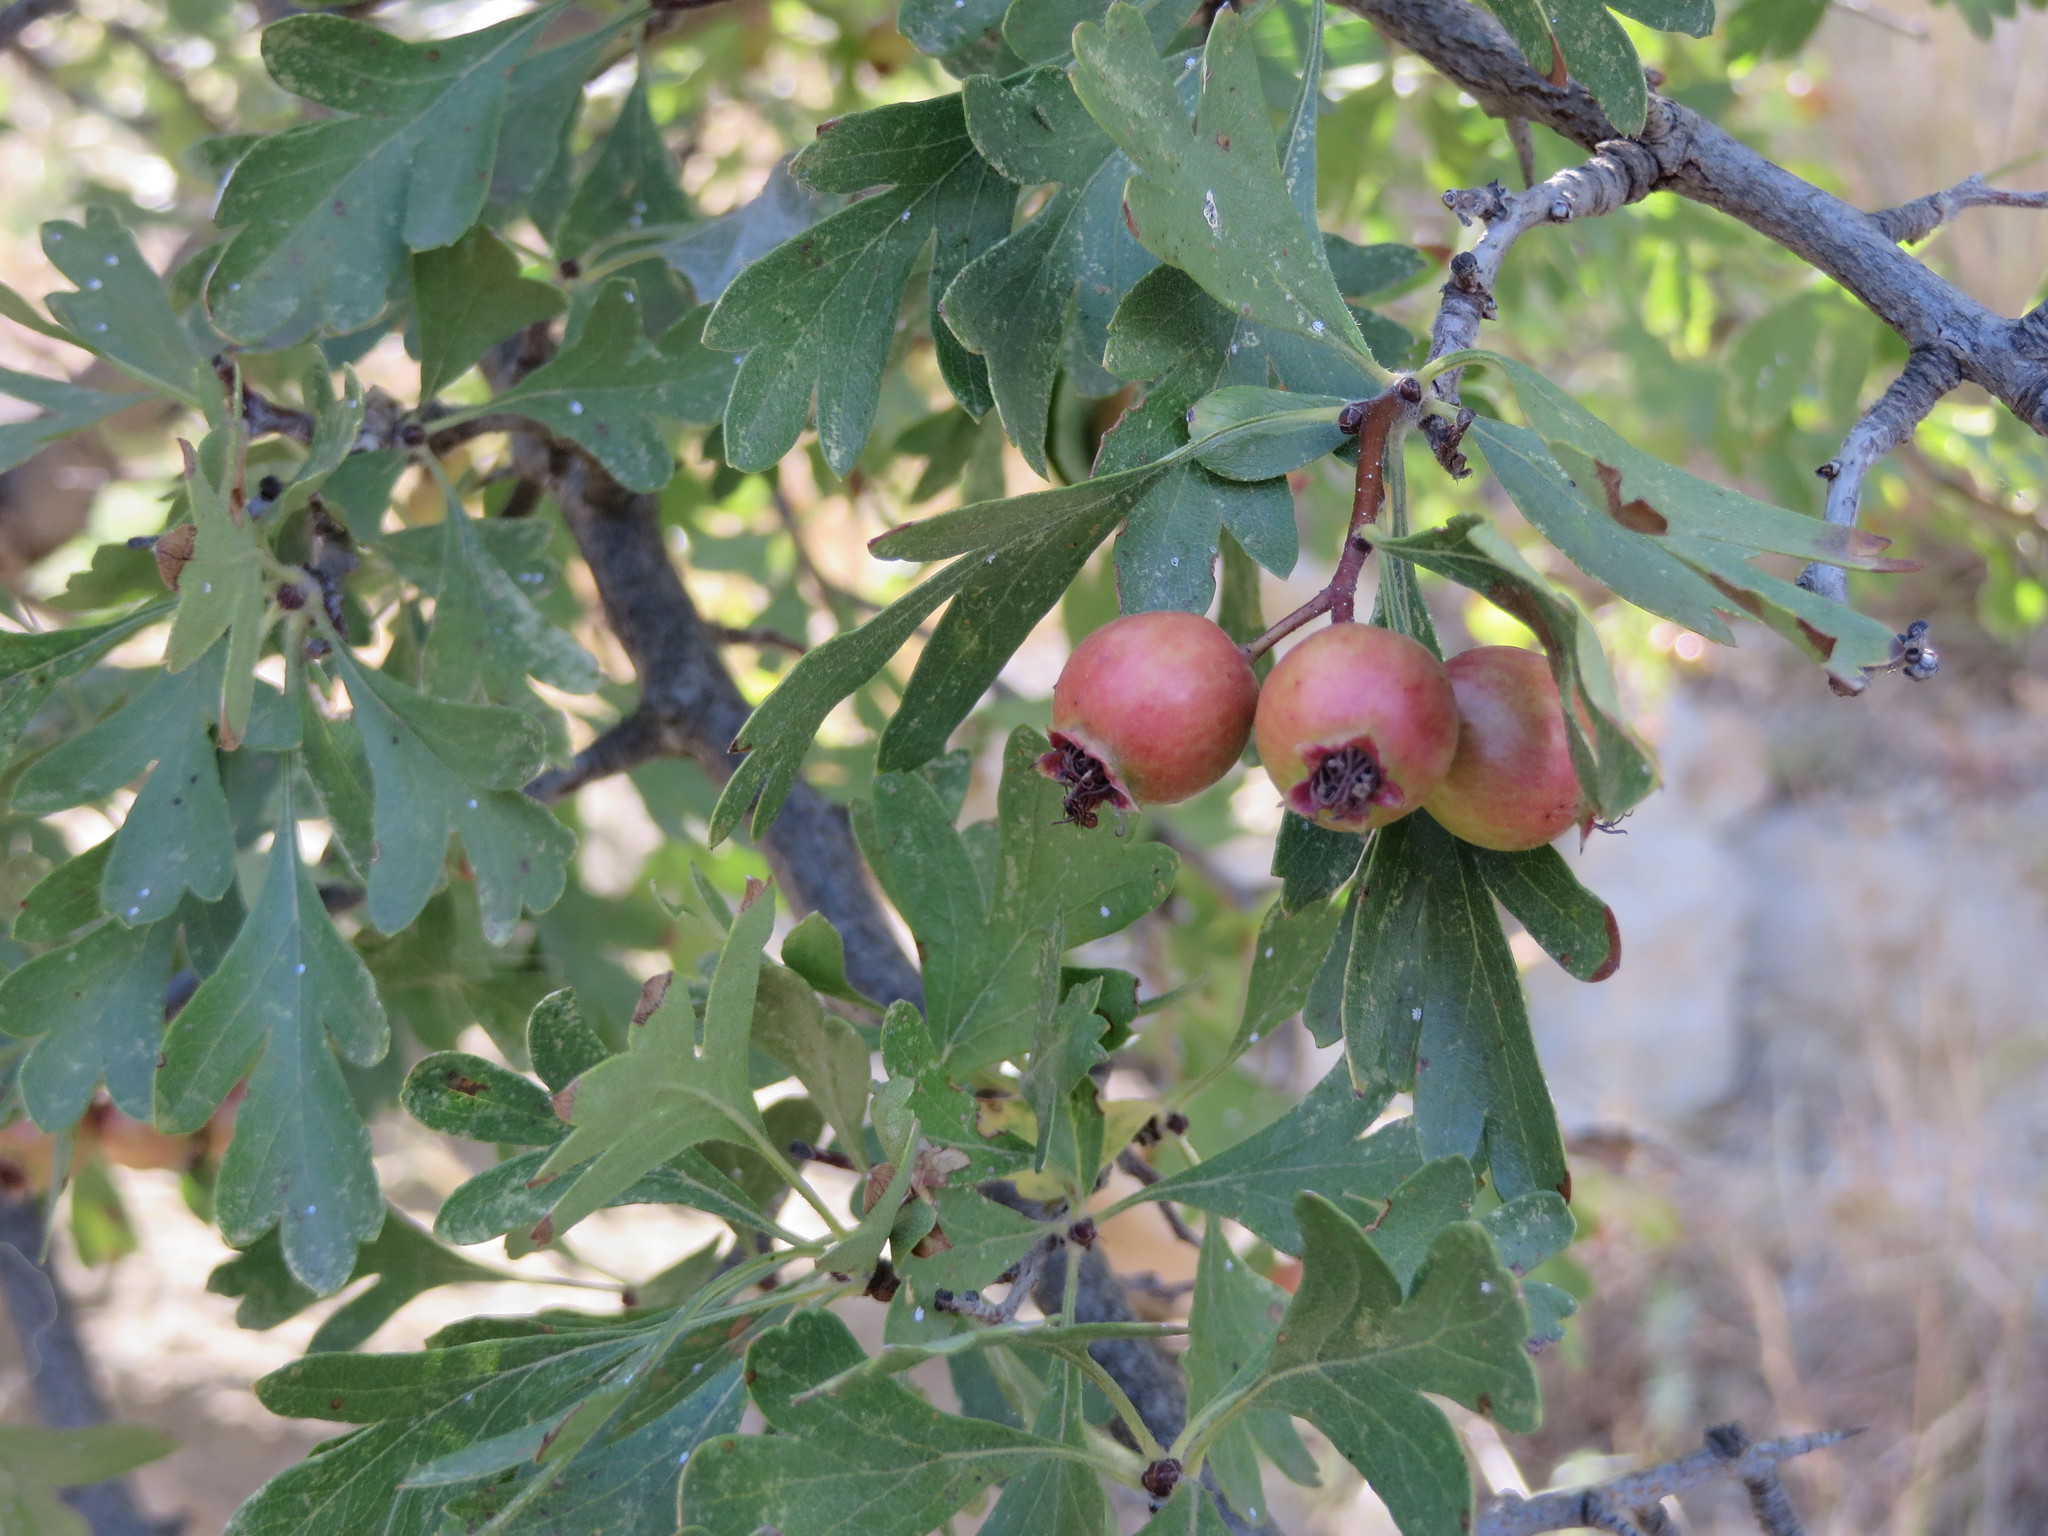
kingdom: Plantae
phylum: Tracheophyta
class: Magnoliopsida
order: Rosales
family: Rosaceae
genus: Crataegus
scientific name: Crataegus azarolus
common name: Azarole
